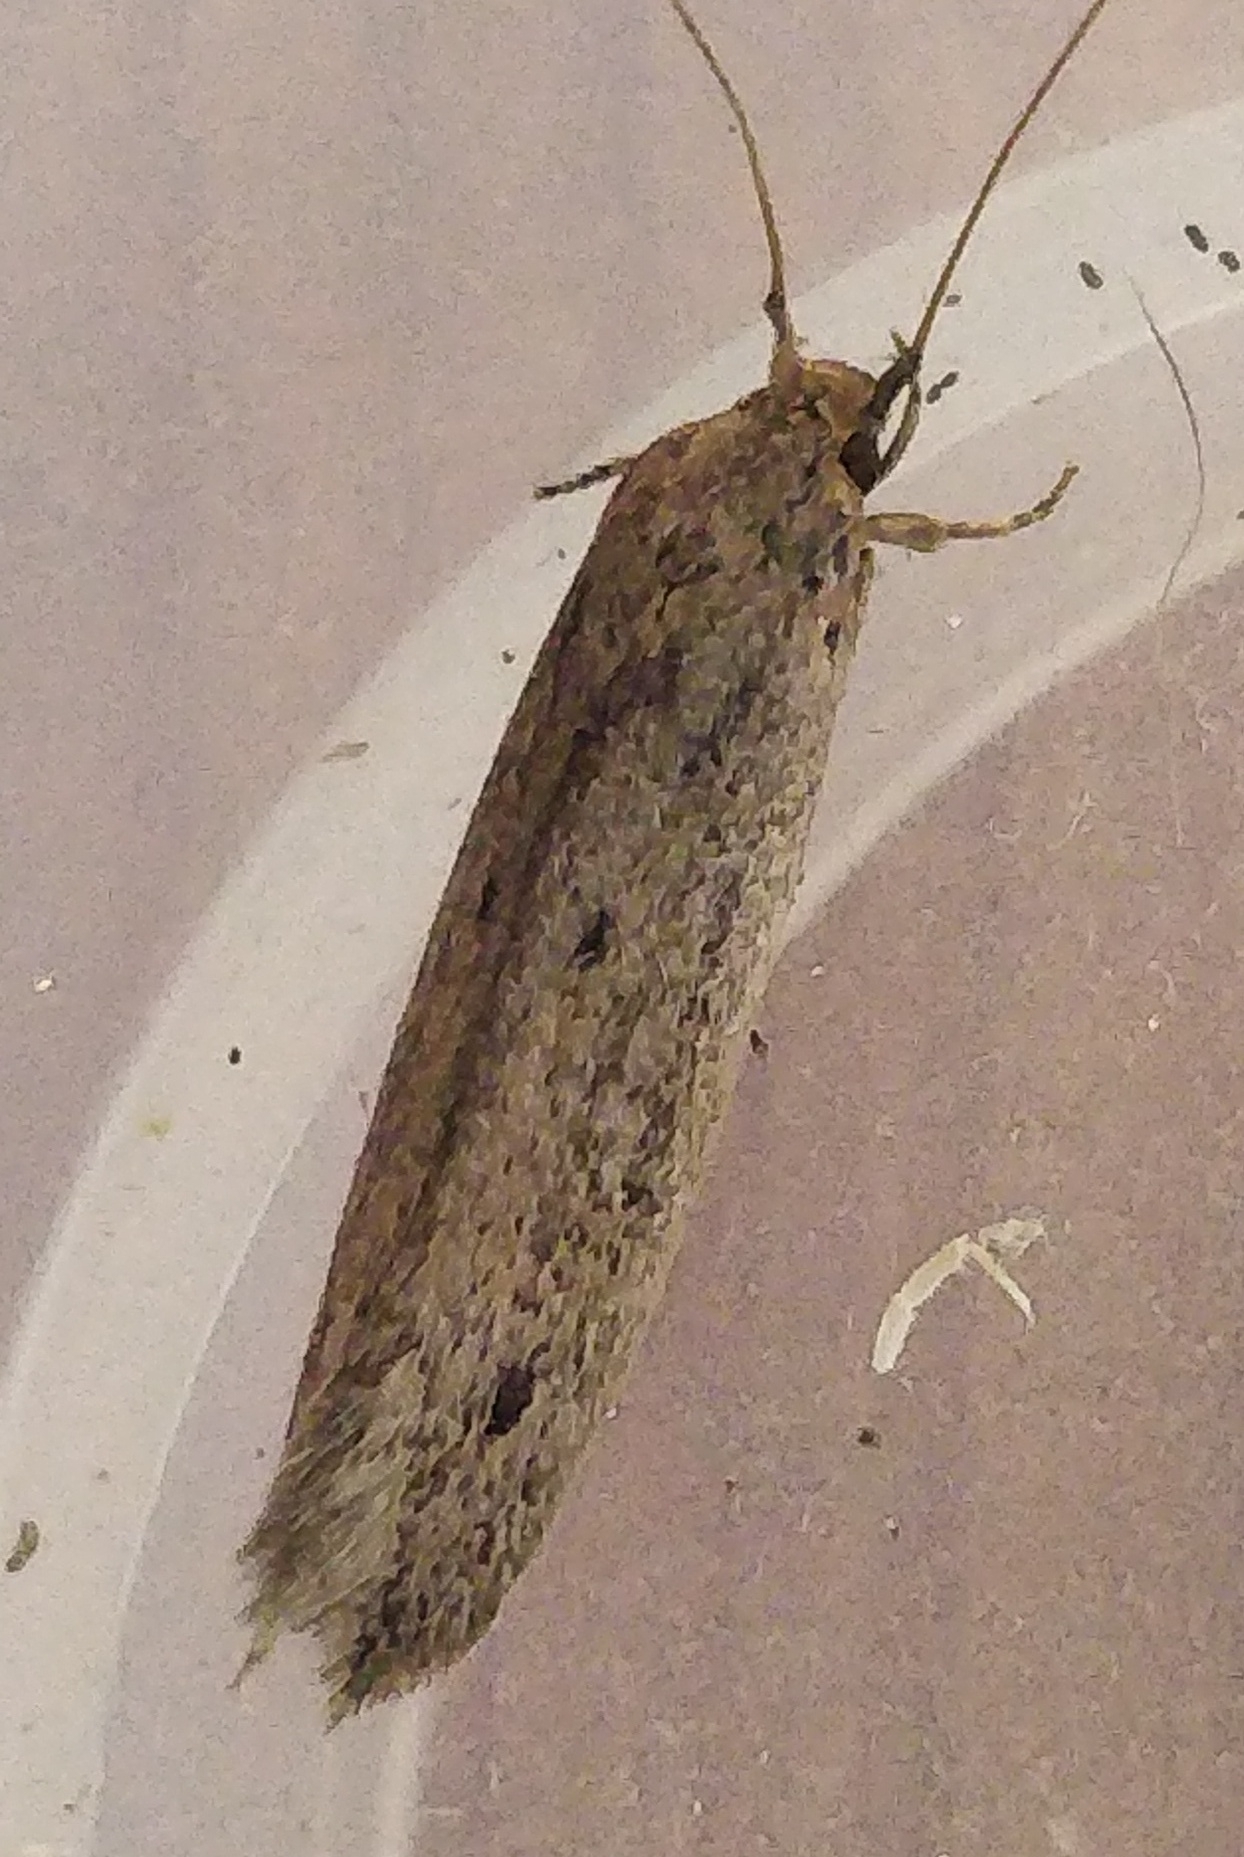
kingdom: Animalia
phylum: Arthropoda
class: Insecta
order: Lepidoptera
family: Tineidae
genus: Opogona
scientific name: Opogona sacchari
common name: Banana bud moth
